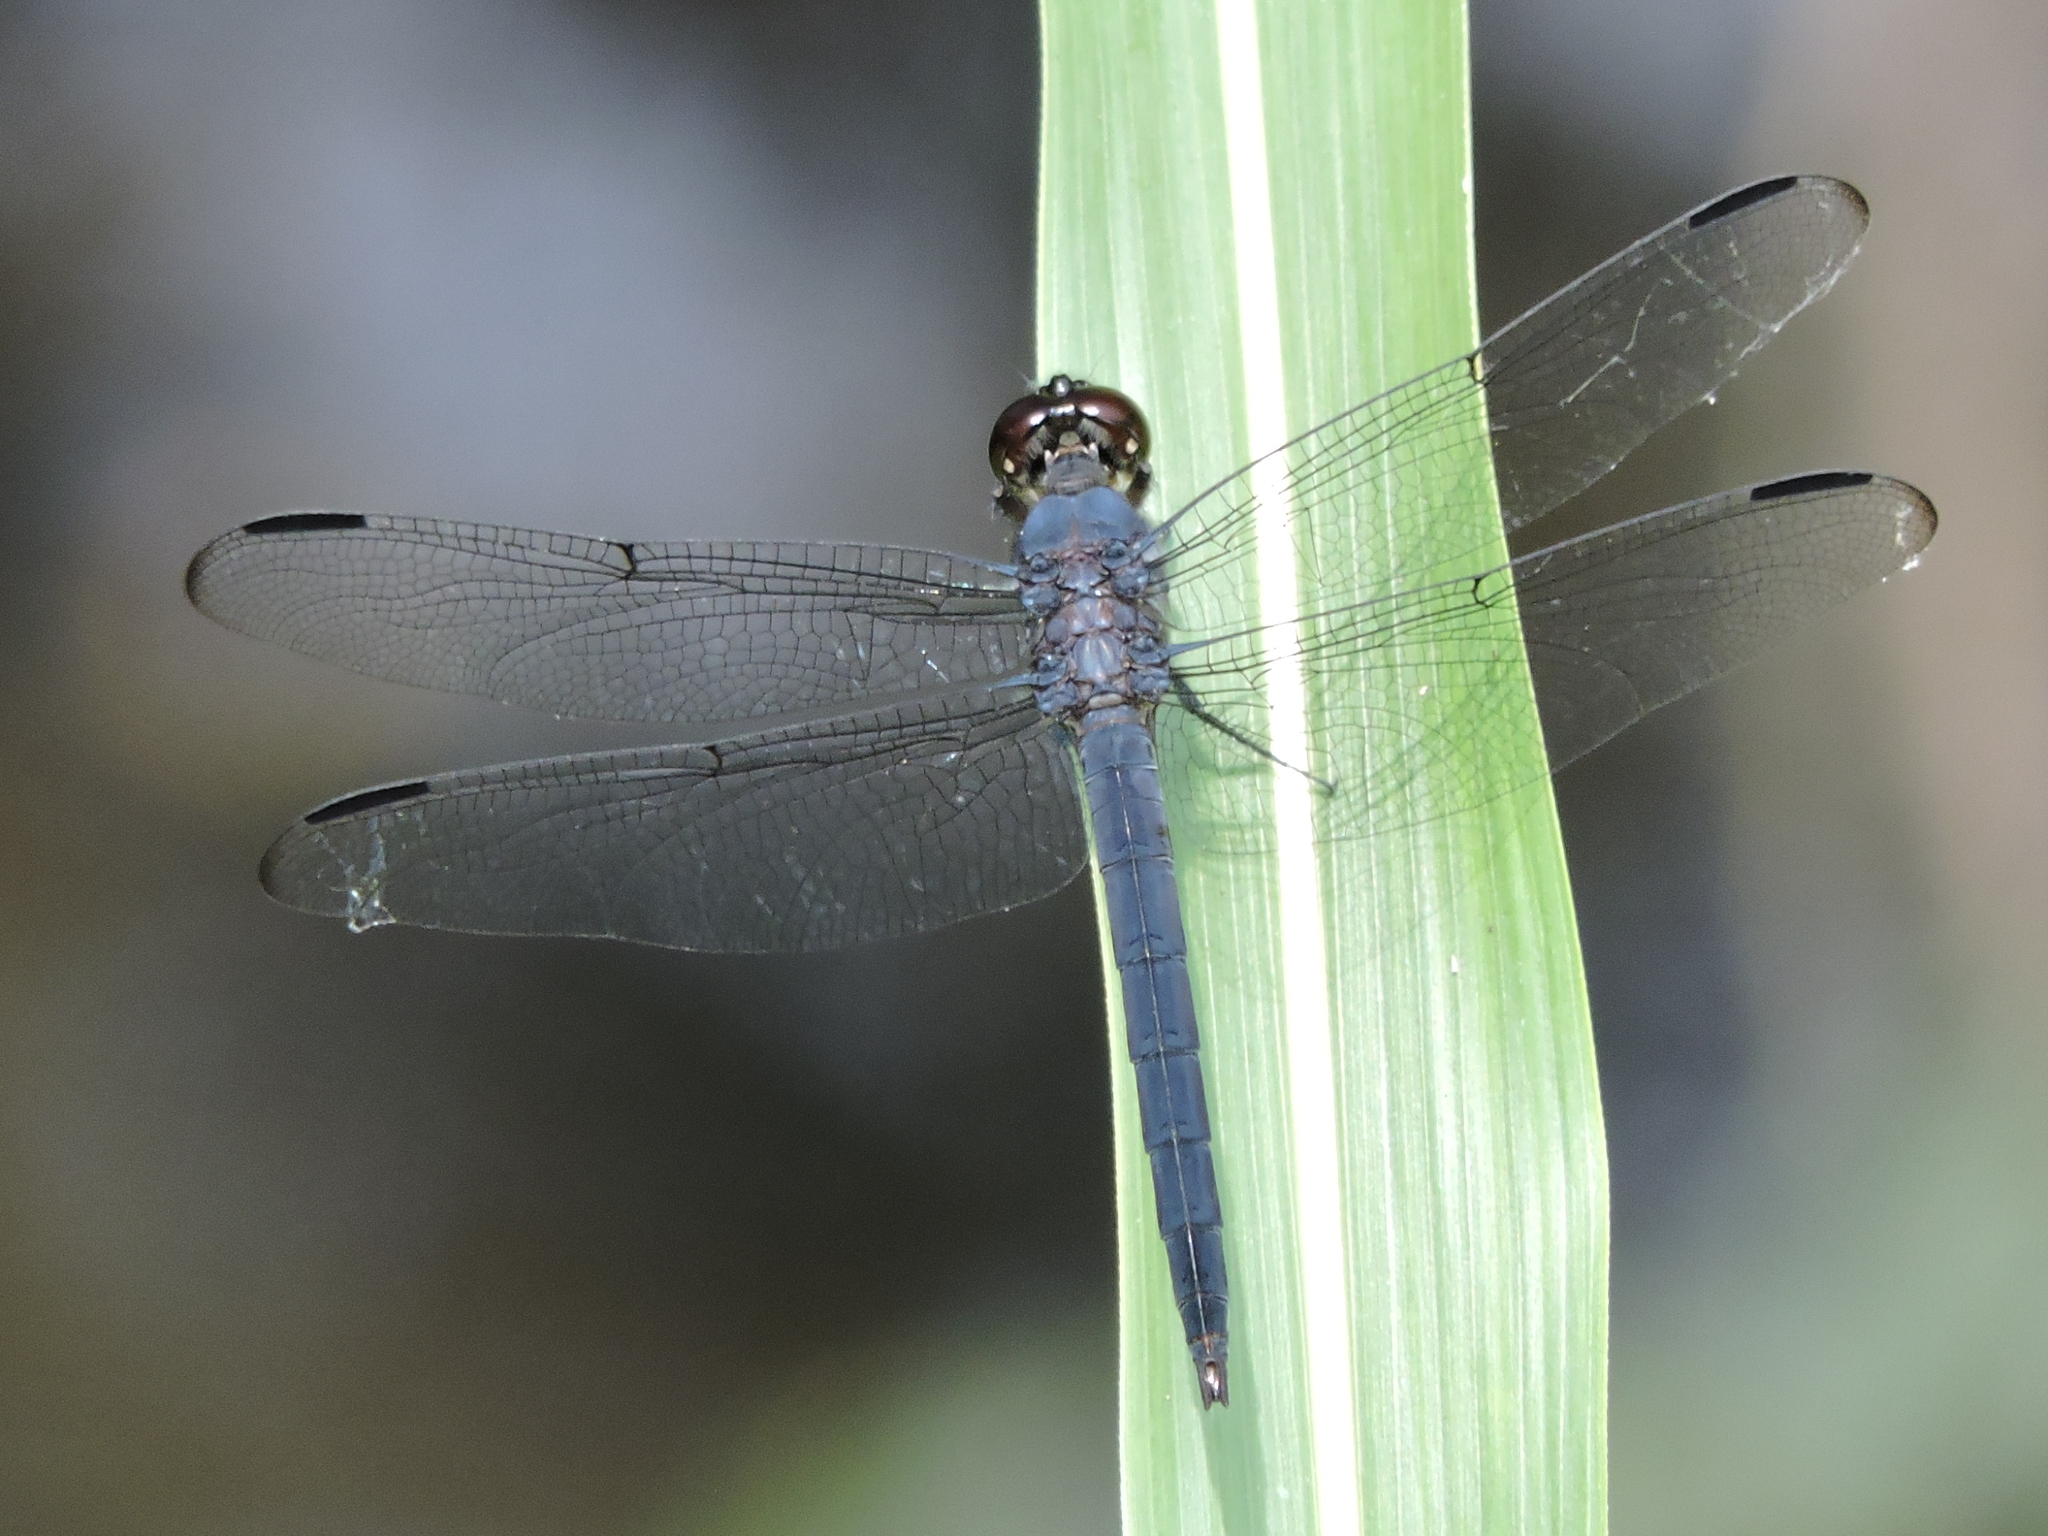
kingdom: Animalia
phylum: Arthropoda
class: Insecta
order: Odonata
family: Libellulidae
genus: Libellula
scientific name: Libellula incesta
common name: Slaty skimmer
